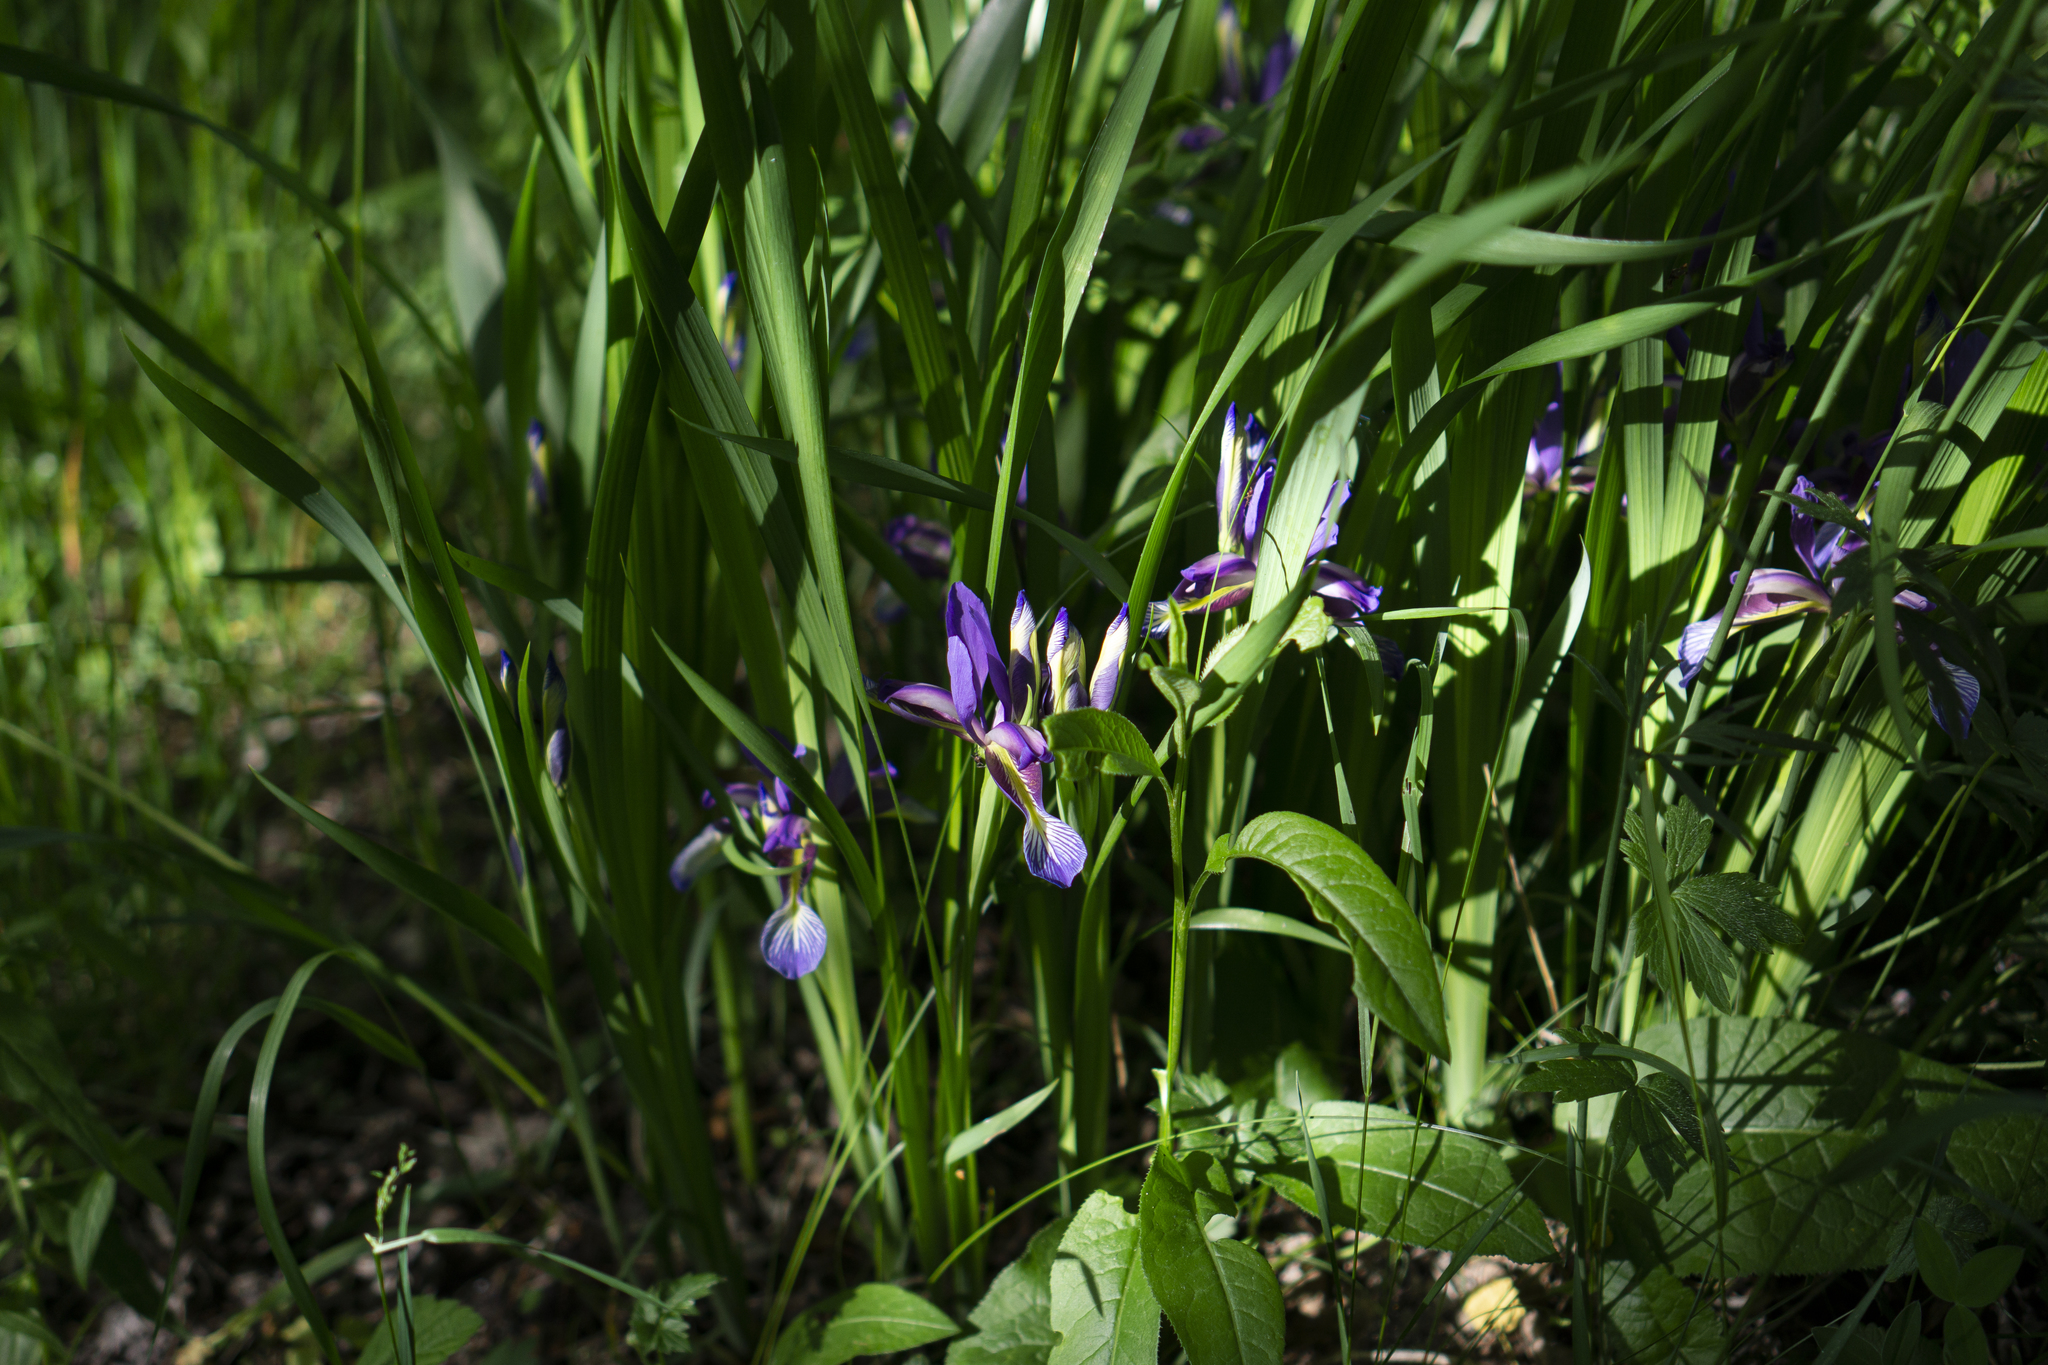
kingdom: Plantae
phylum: Tracheophyta
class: Liliopsida
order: Asparagales
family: Iridaceae
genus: Iris
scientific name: Iris graminea
